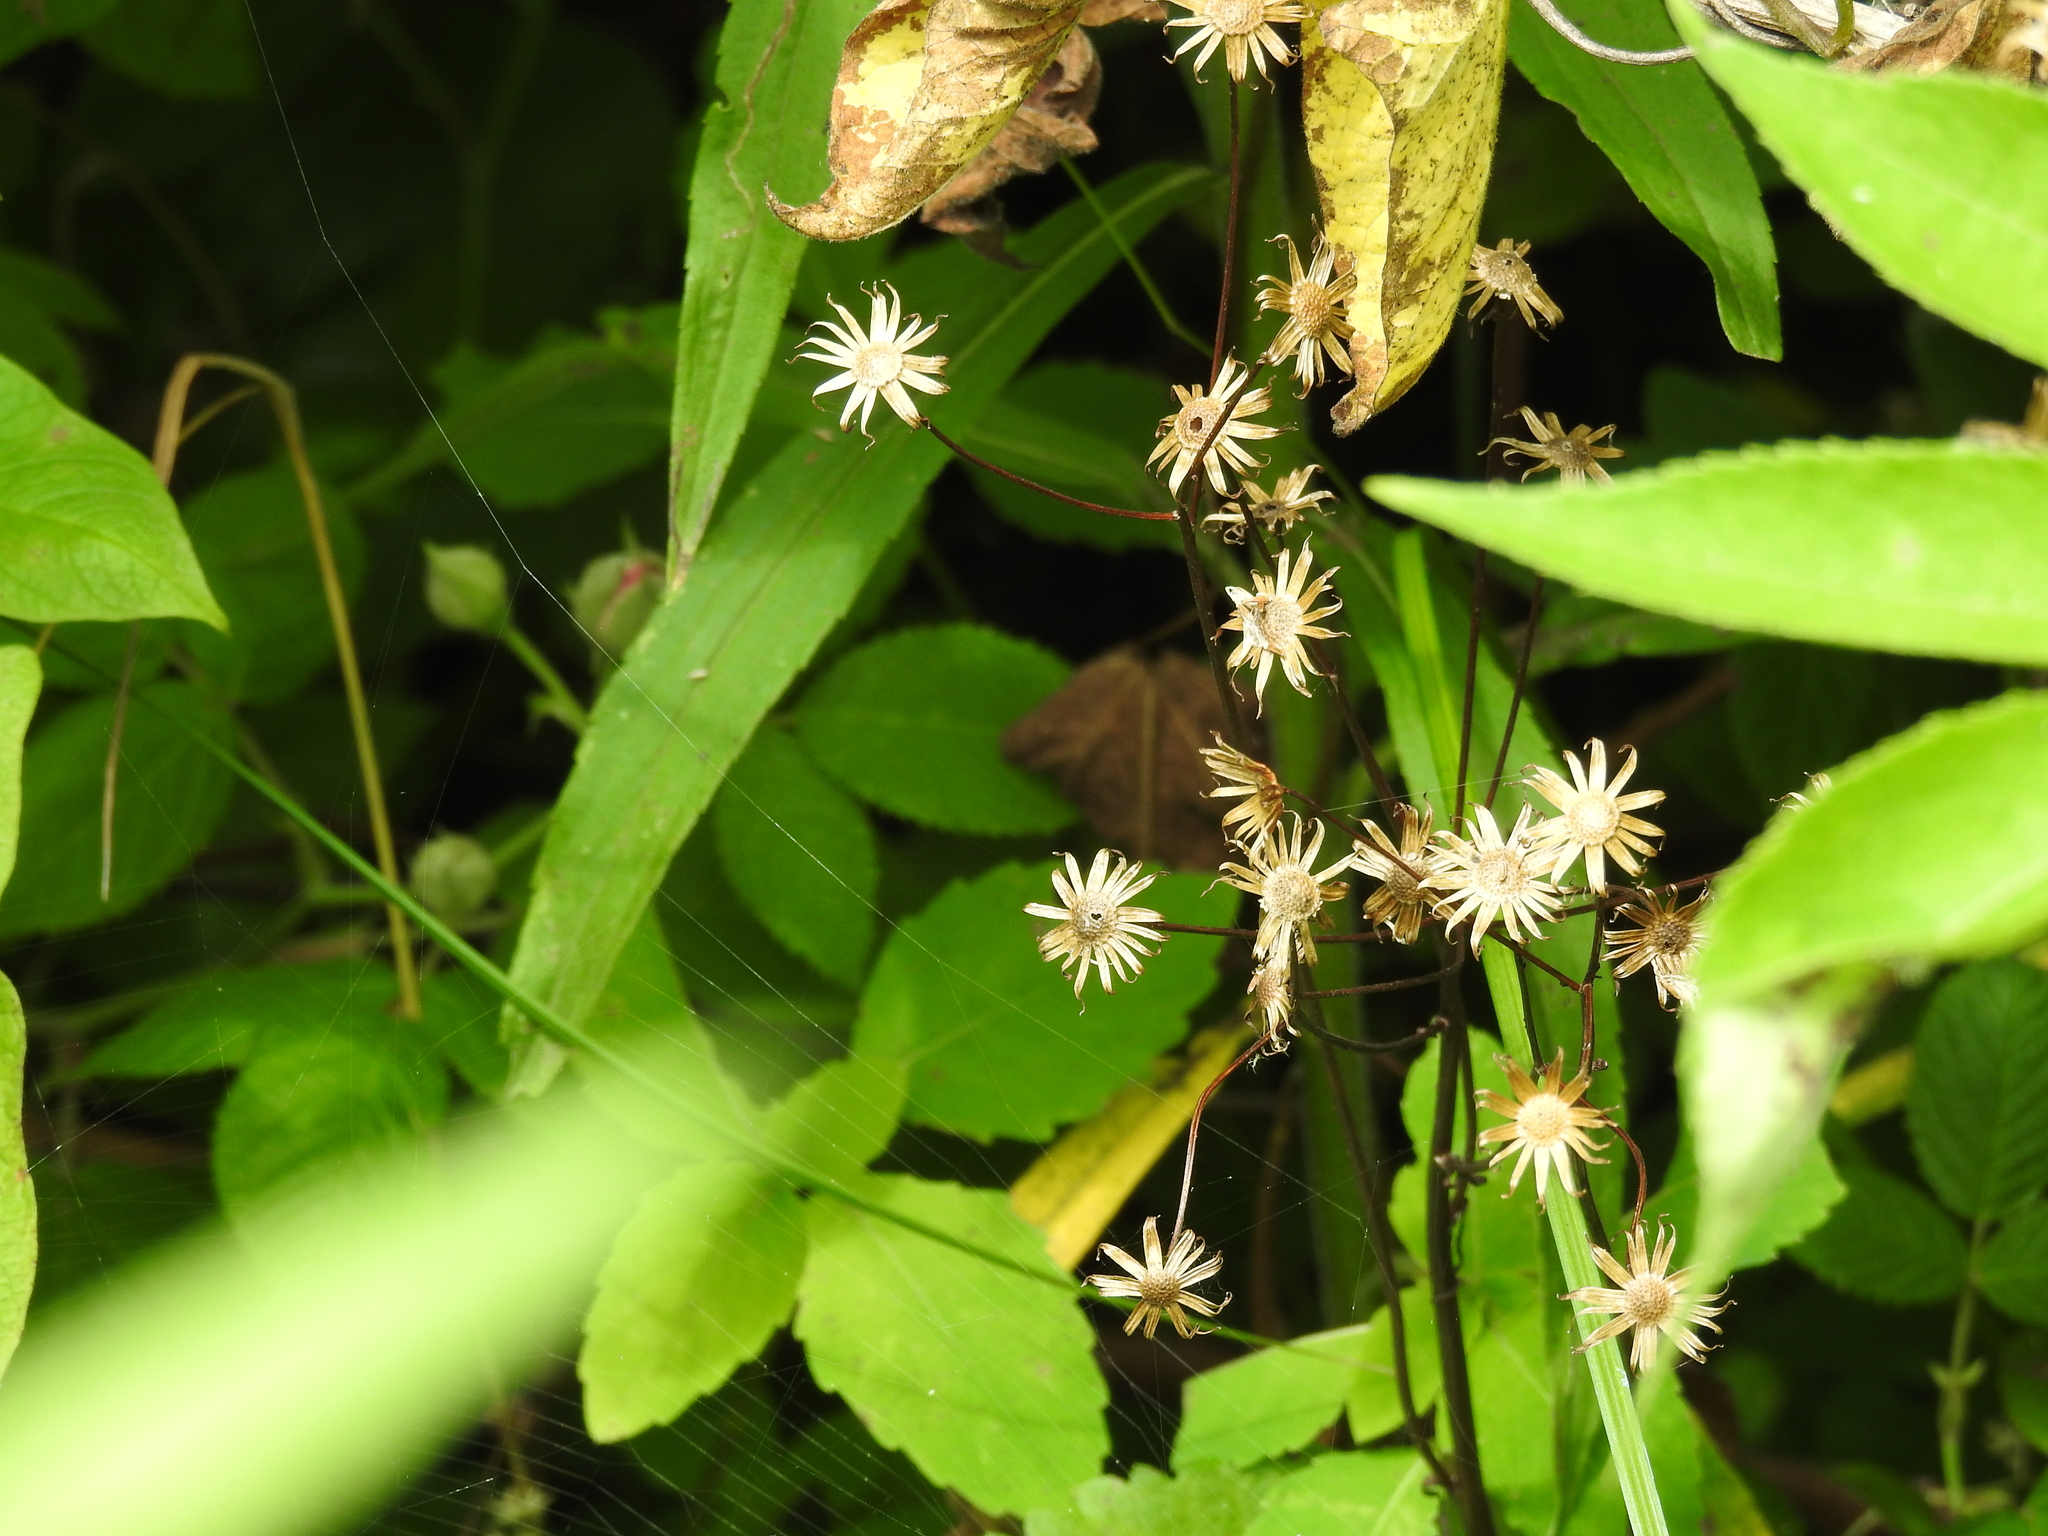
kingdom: Plantae
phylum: Tracheophyta
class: Magnoliopsida
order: Asterales
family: Asteraceae
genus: Packera
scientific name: Packera aurea
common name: Golden groundsel
